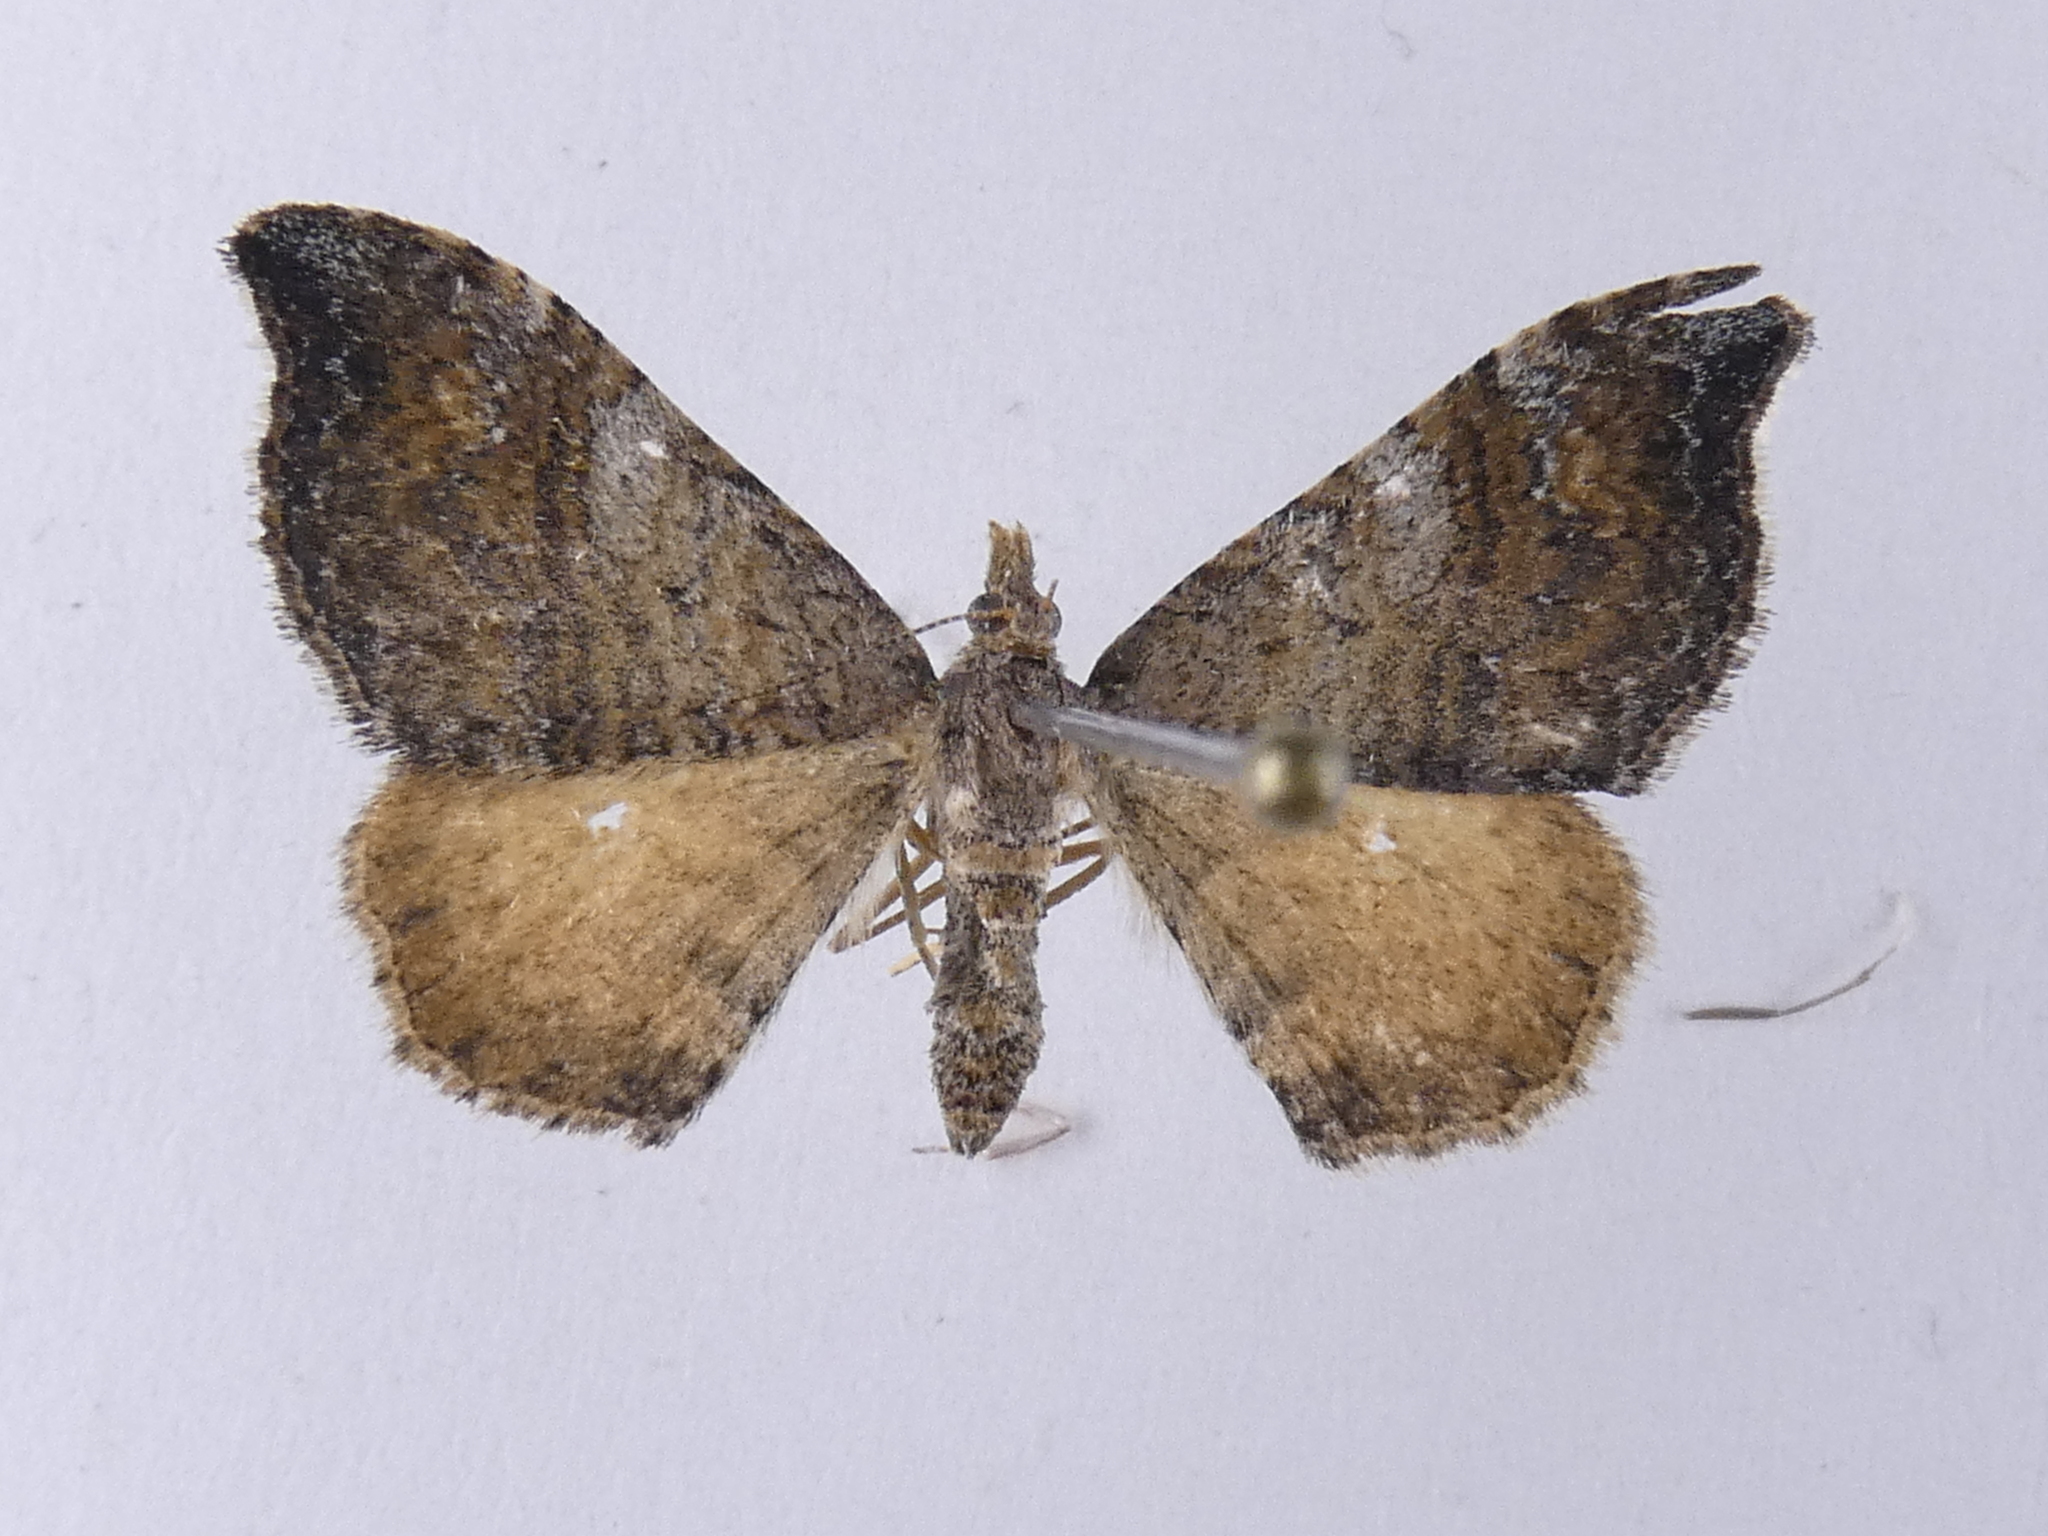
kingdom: Animalia
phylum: Arthropoda
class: Insecta
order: Lepidoptera
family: Geometridae
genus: Homodotis
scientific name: Homodotis megaspilata
